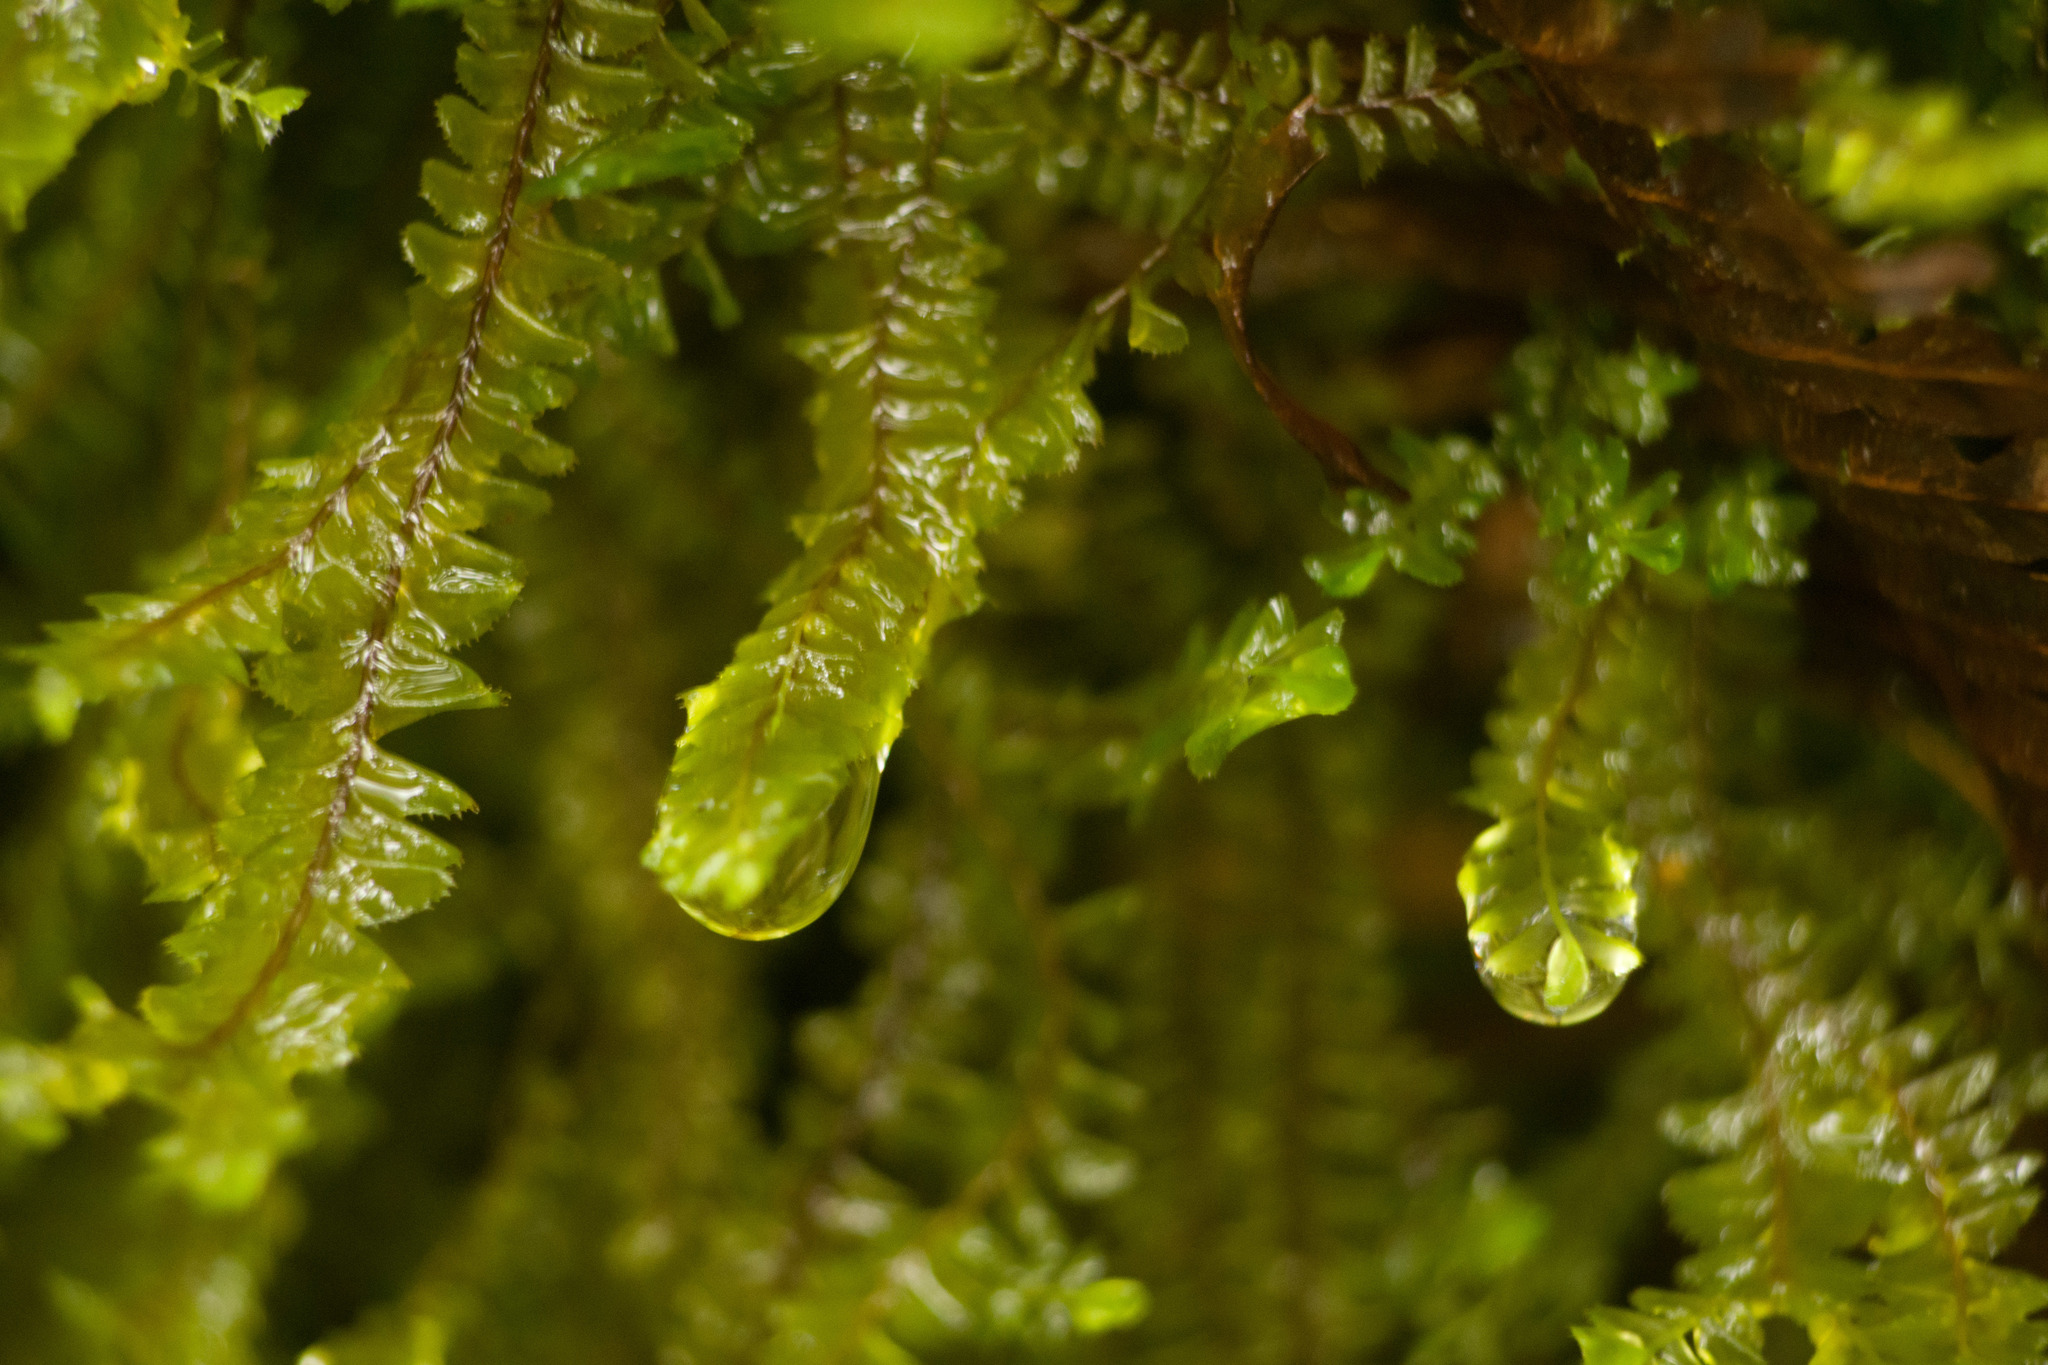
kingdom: Plantae
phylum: Marchantiophyta
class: Jungermanniopsida
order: Jungermanniales
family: Plagiochilaceae
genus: Plagiochila
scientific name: Plagiochila deflexa
